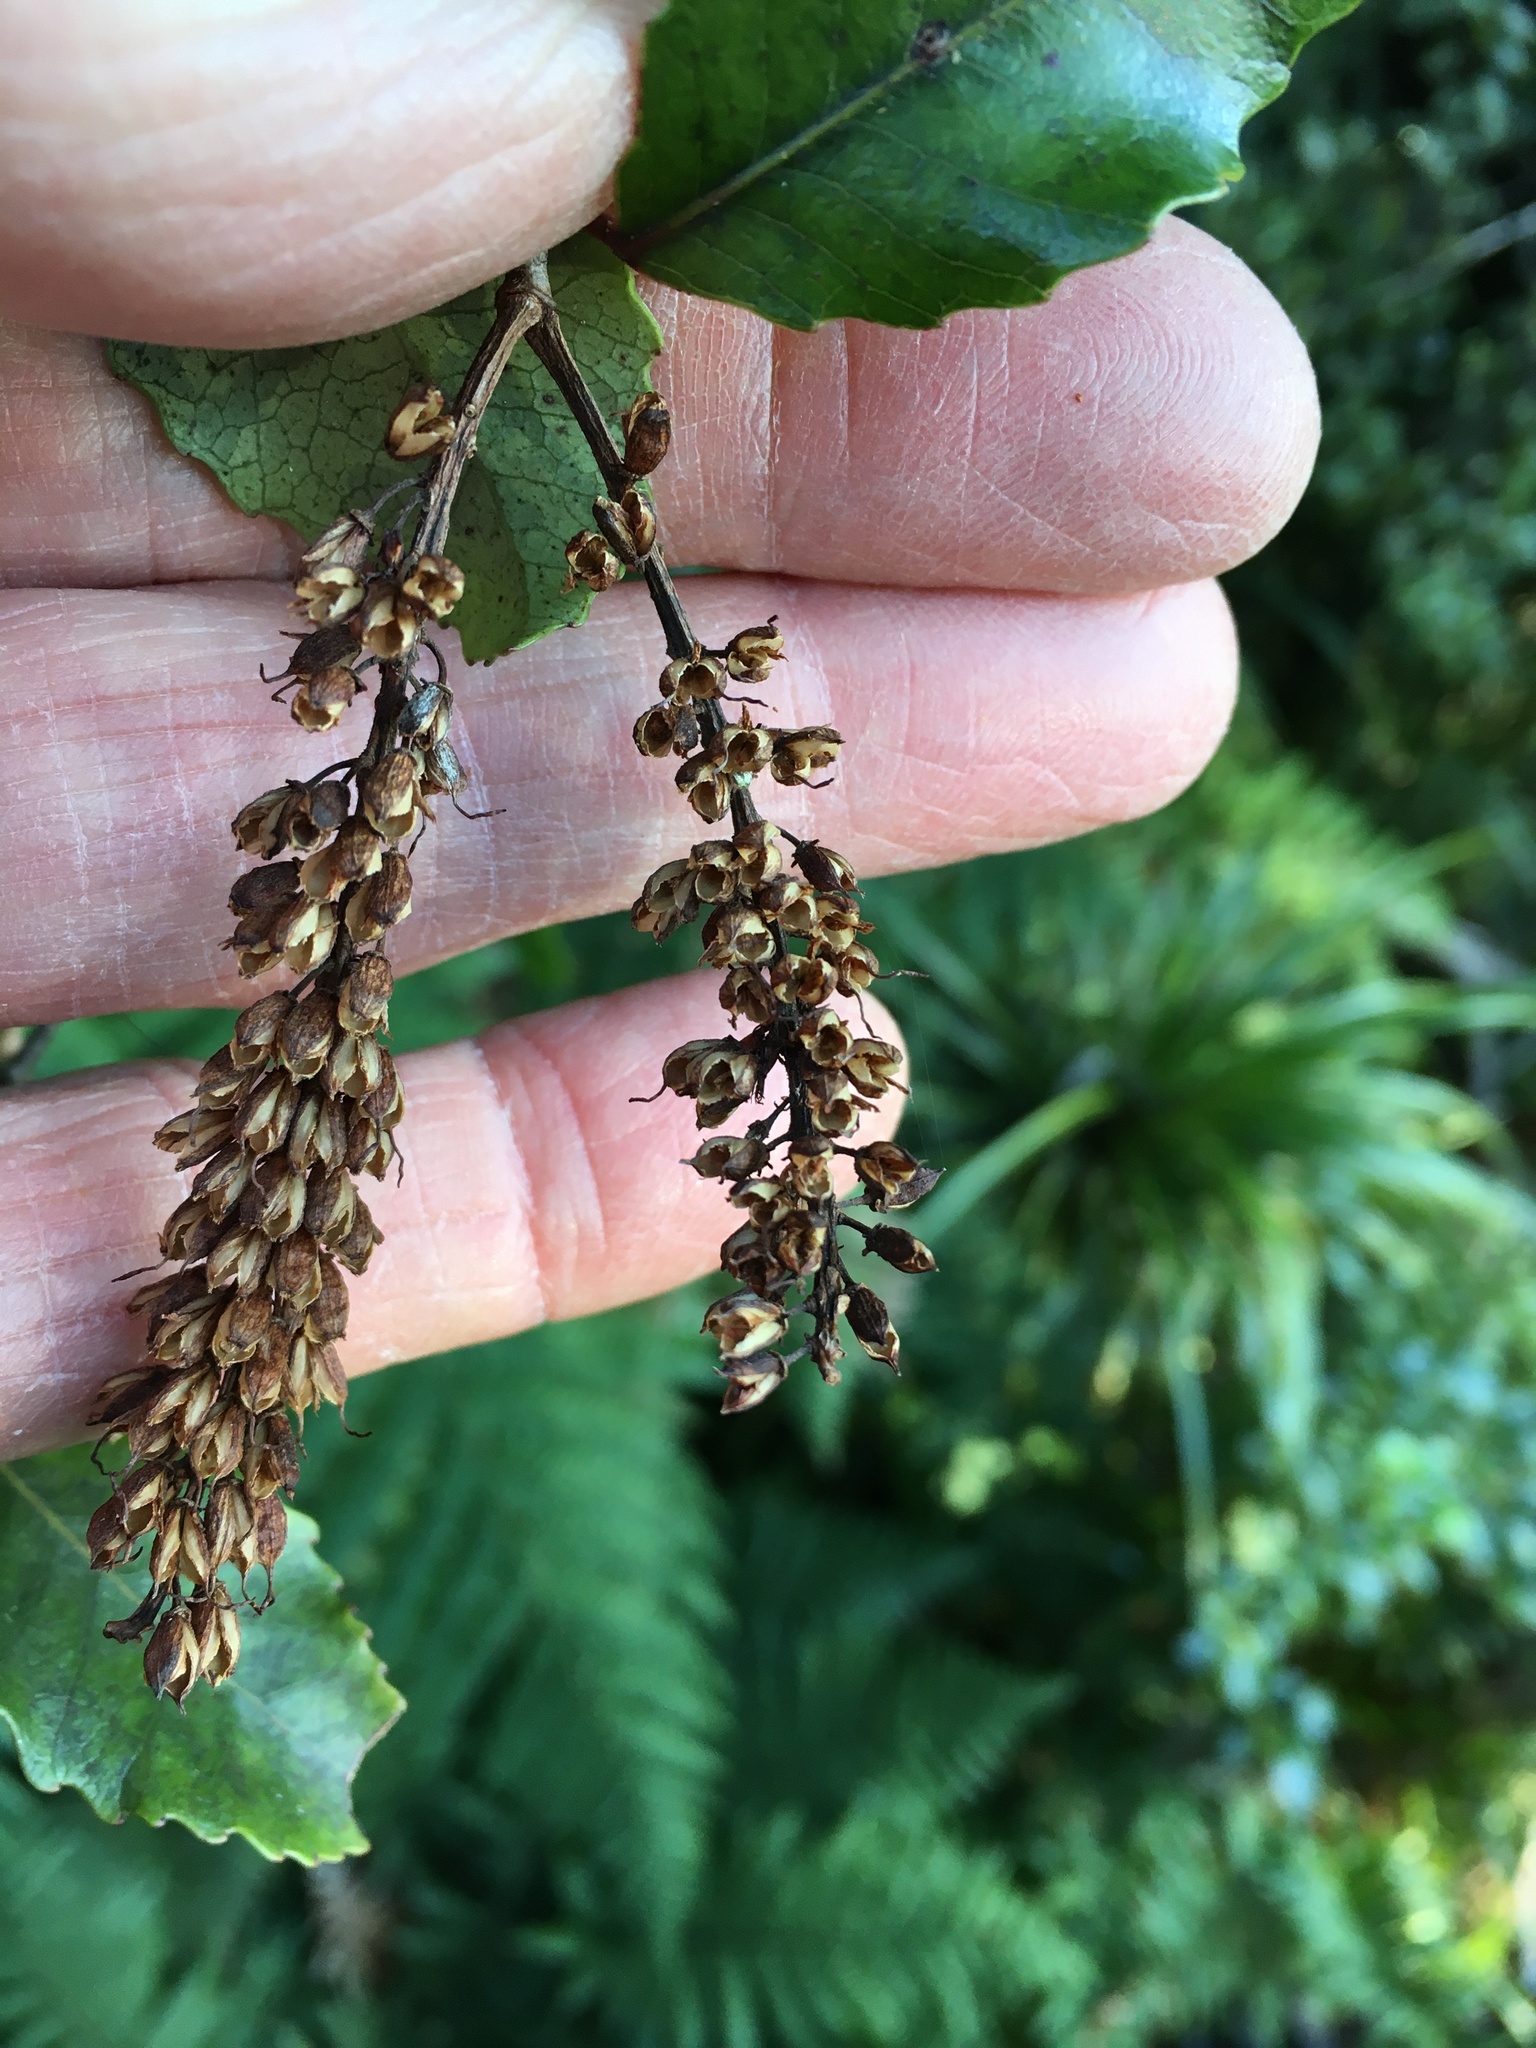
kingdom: Plantae
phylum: Tracheophyta
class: Magnoliopsida
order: Oxalidales
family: Cunoniaceae
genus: Pterophylla
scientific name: Pterophylla racemosa
